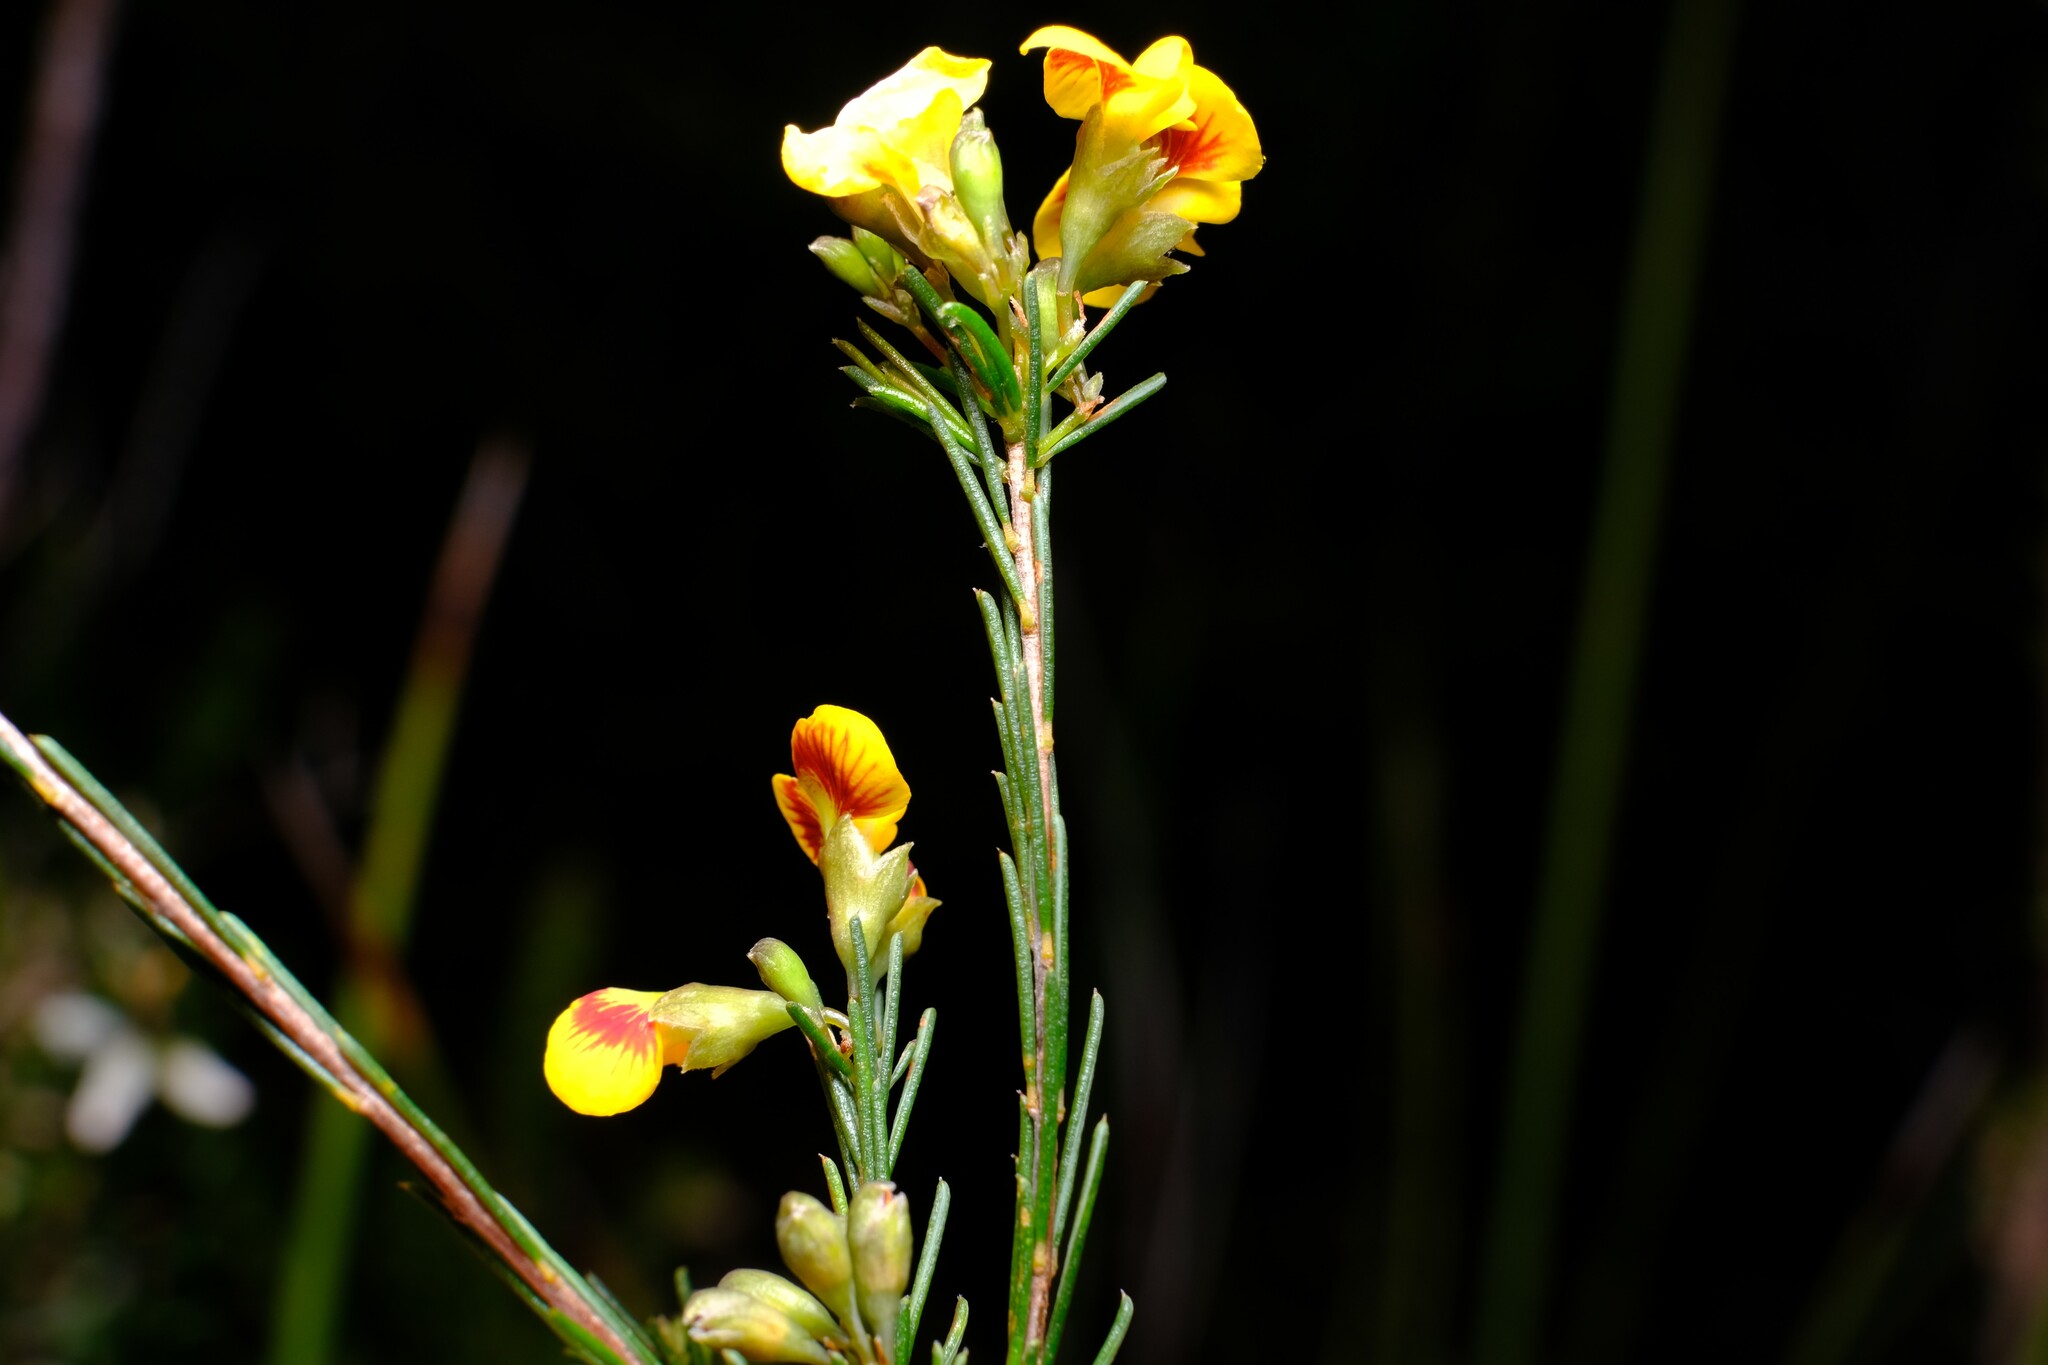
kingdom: Plantae
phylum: Tracheophyta
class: Magnoliopsida
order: Fabales
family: Fabaceae
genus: Dillwynia
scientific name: Dillwynia glaberrima
